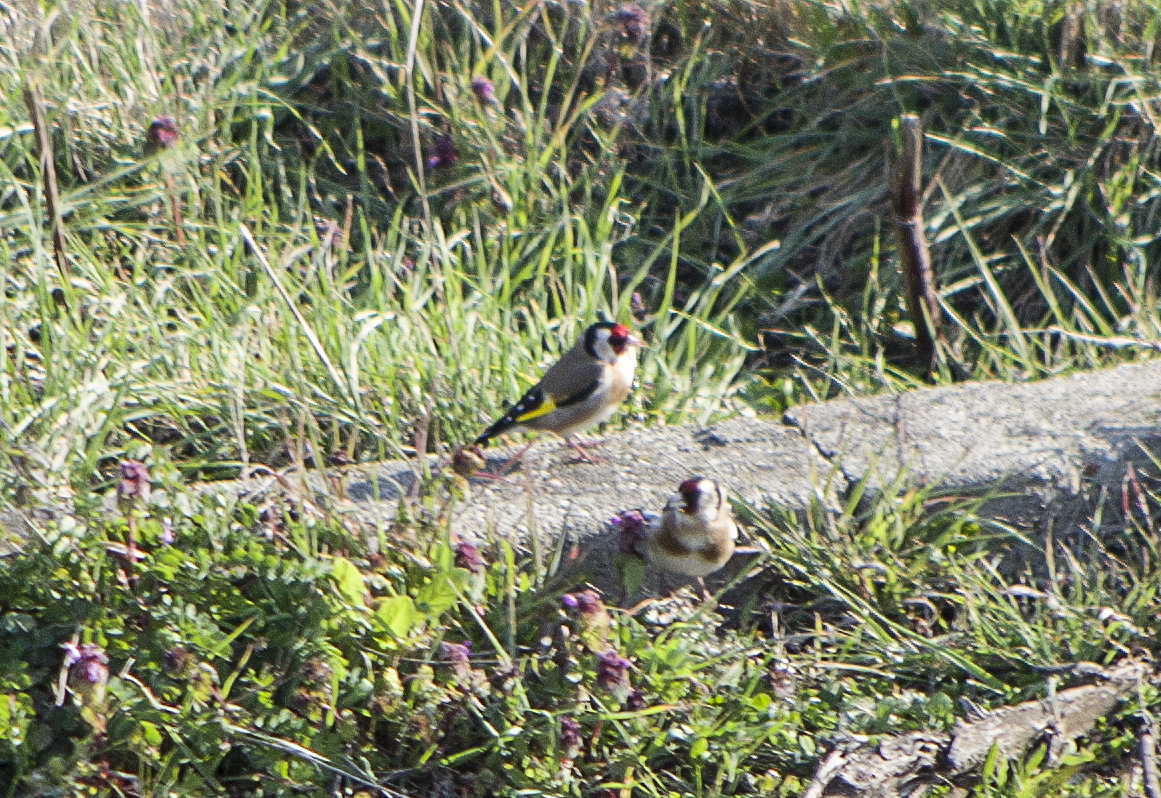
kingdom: Animalia
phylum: Chordata
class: Aves
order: Passeriformes
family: Fringillidae
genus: Carduelis
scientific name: Carduelis carduelis
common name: European goldfinch
